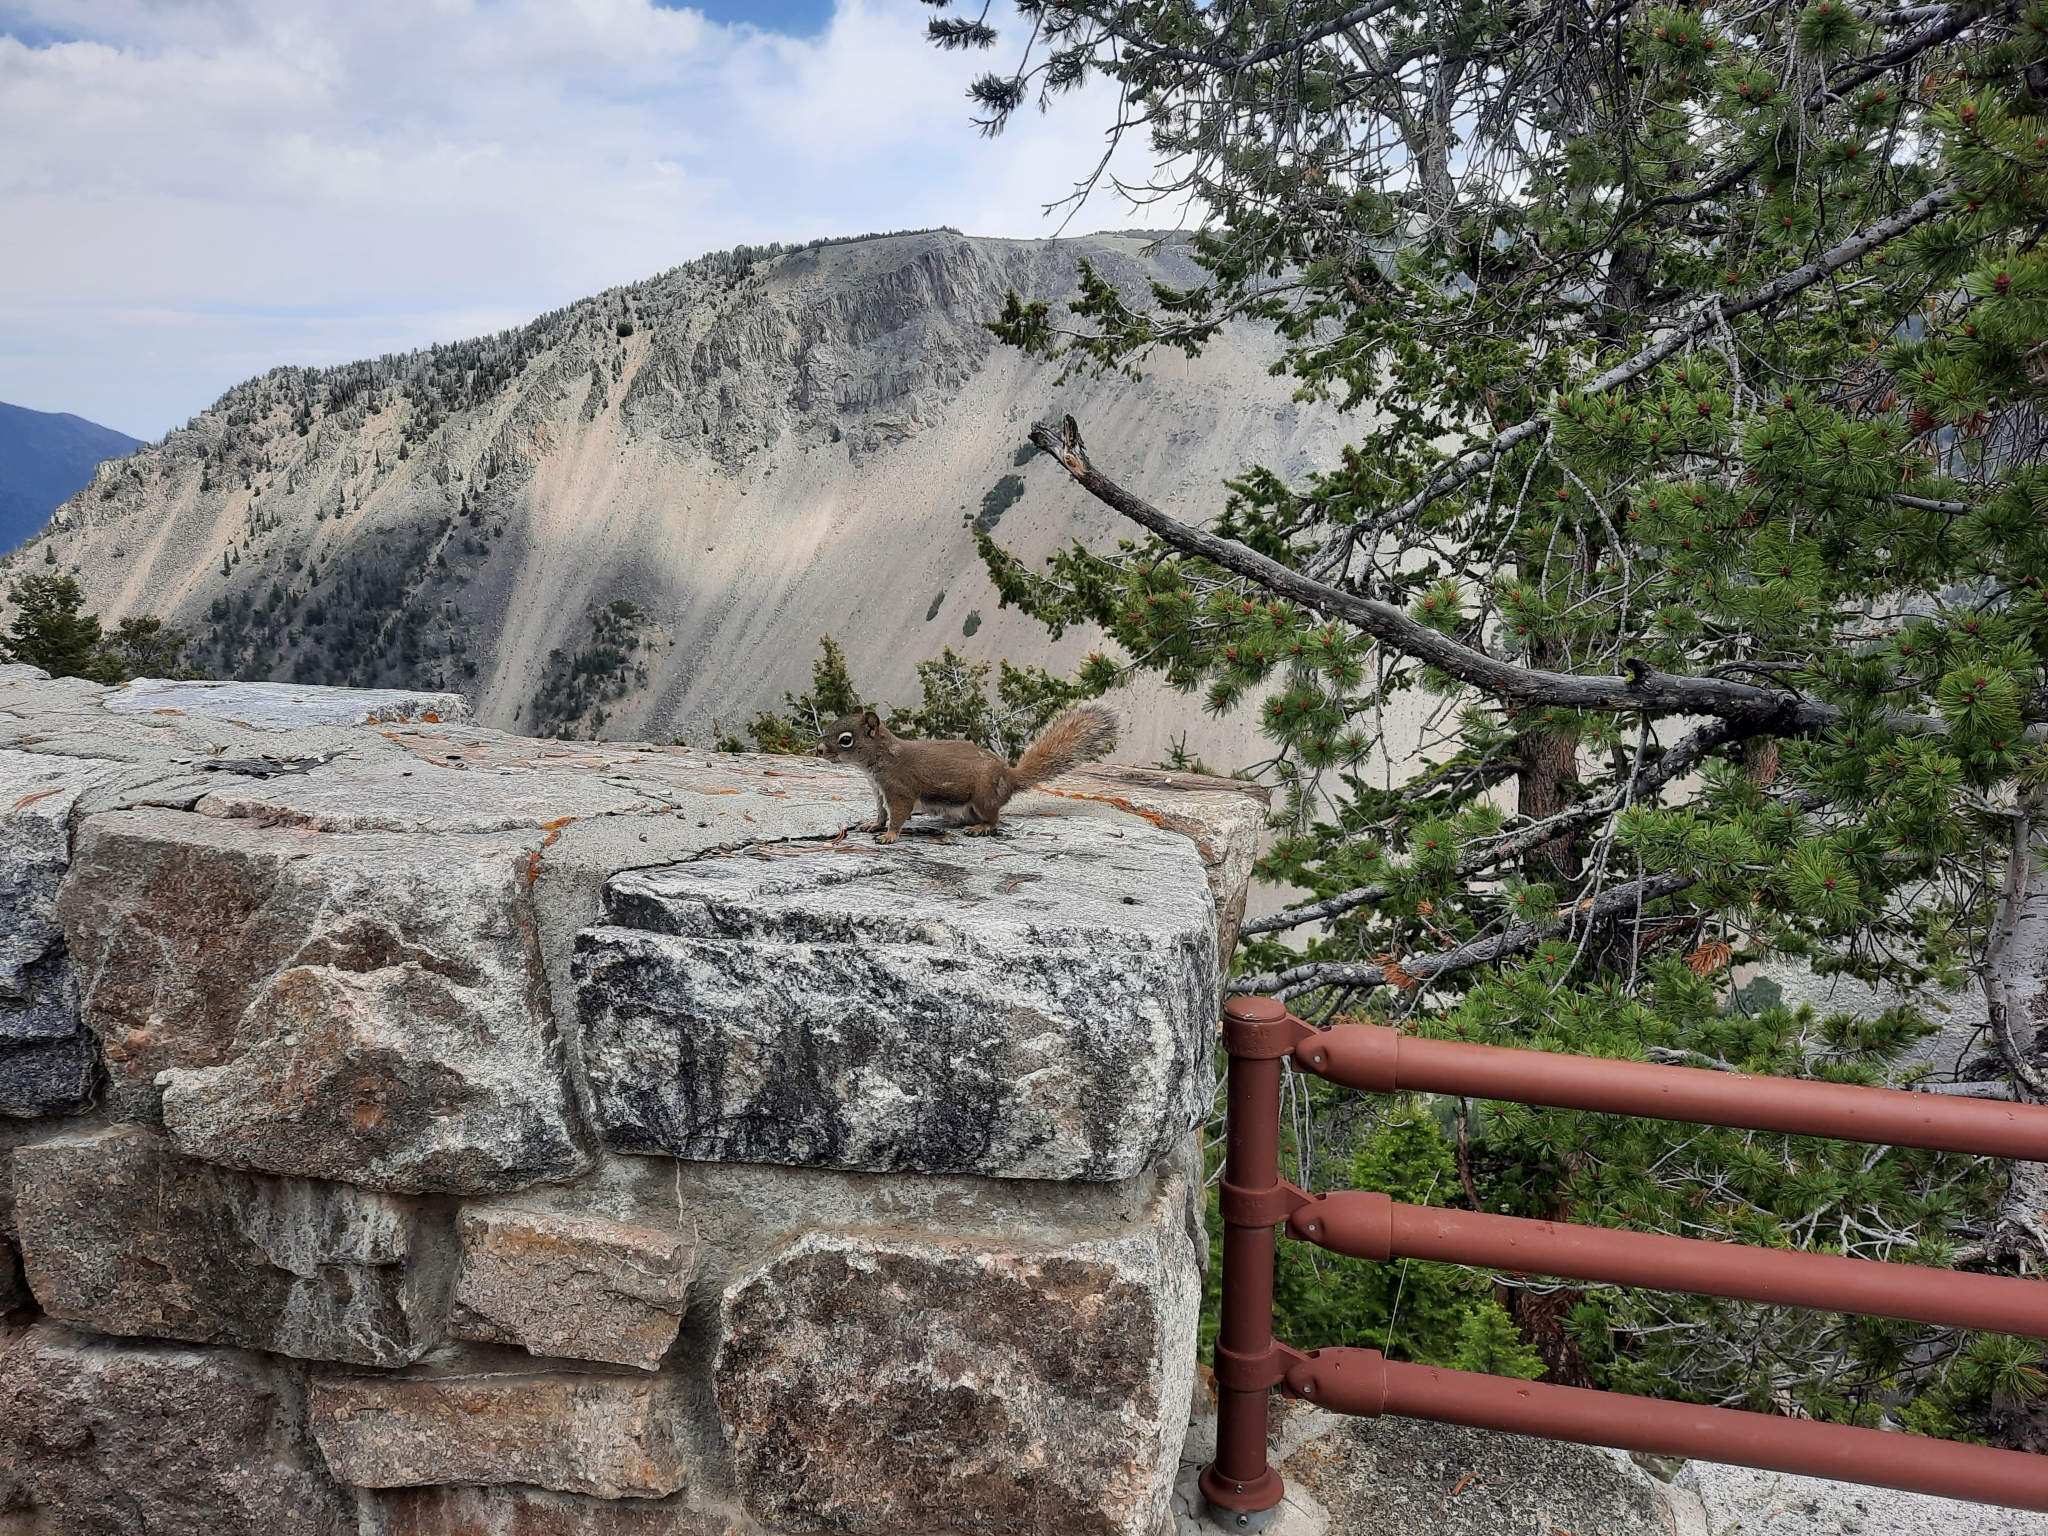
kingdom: Animalia
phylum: Chordata
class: Mammalia
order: Rodentia
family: Sciuridae
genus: Tamiasciurus
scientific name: Tamiasciurus hudsonicus
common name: Red squirrel
